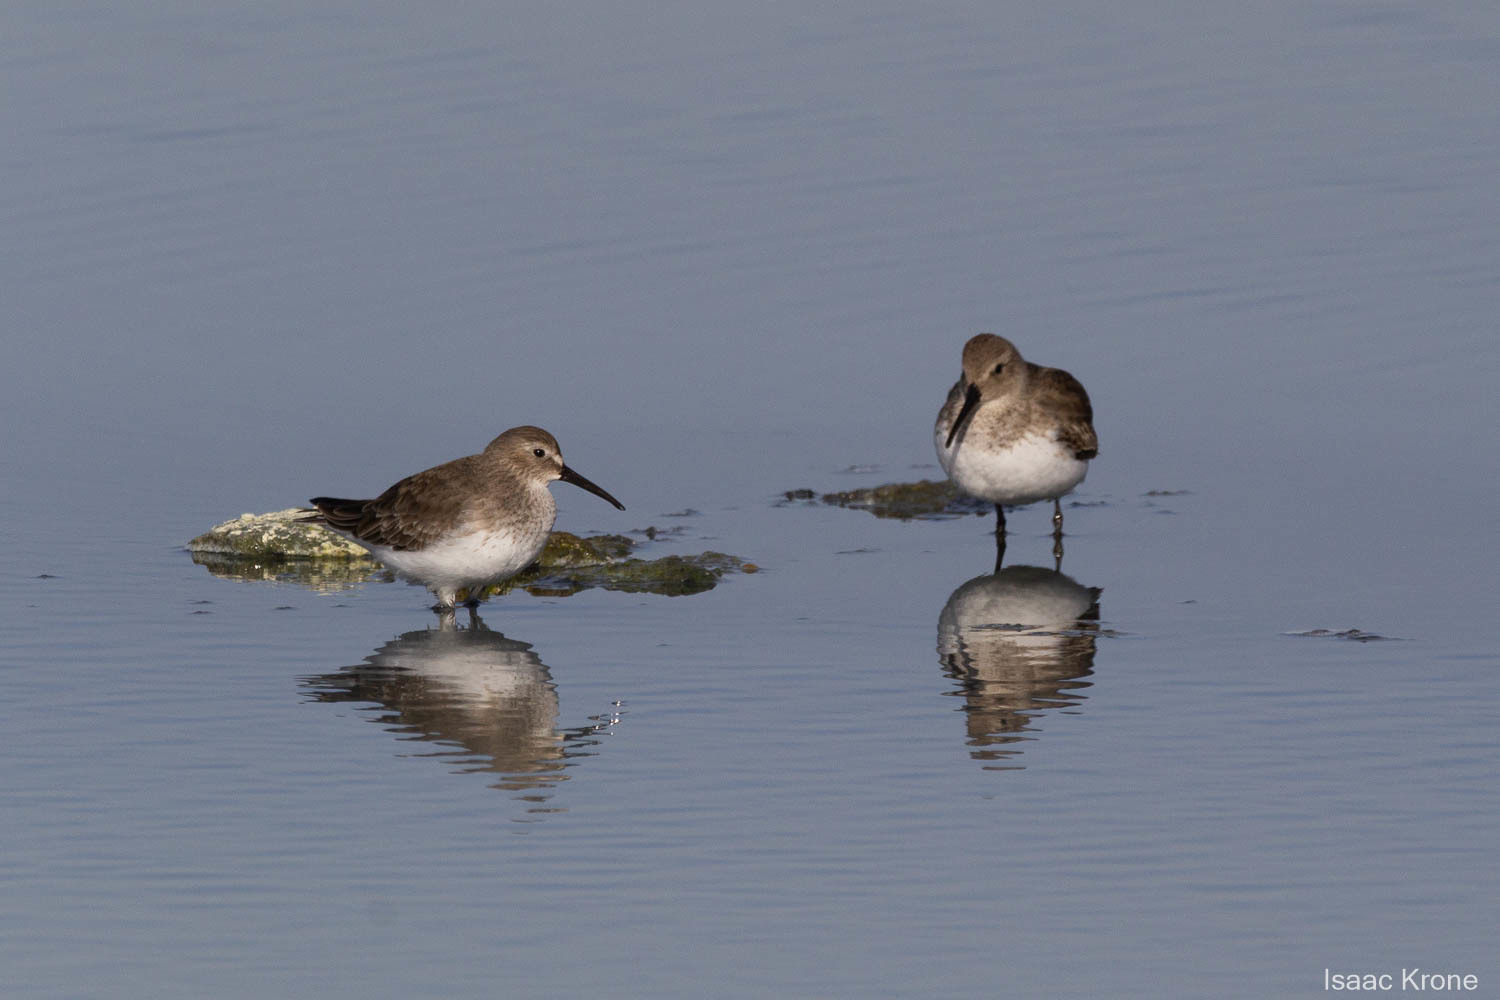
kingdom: Animalia
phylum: Chordata
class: Aves
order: Charadriiformes
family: Scolopacidae
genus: Calidris
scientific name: Calidris alpina
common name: Dunlin
